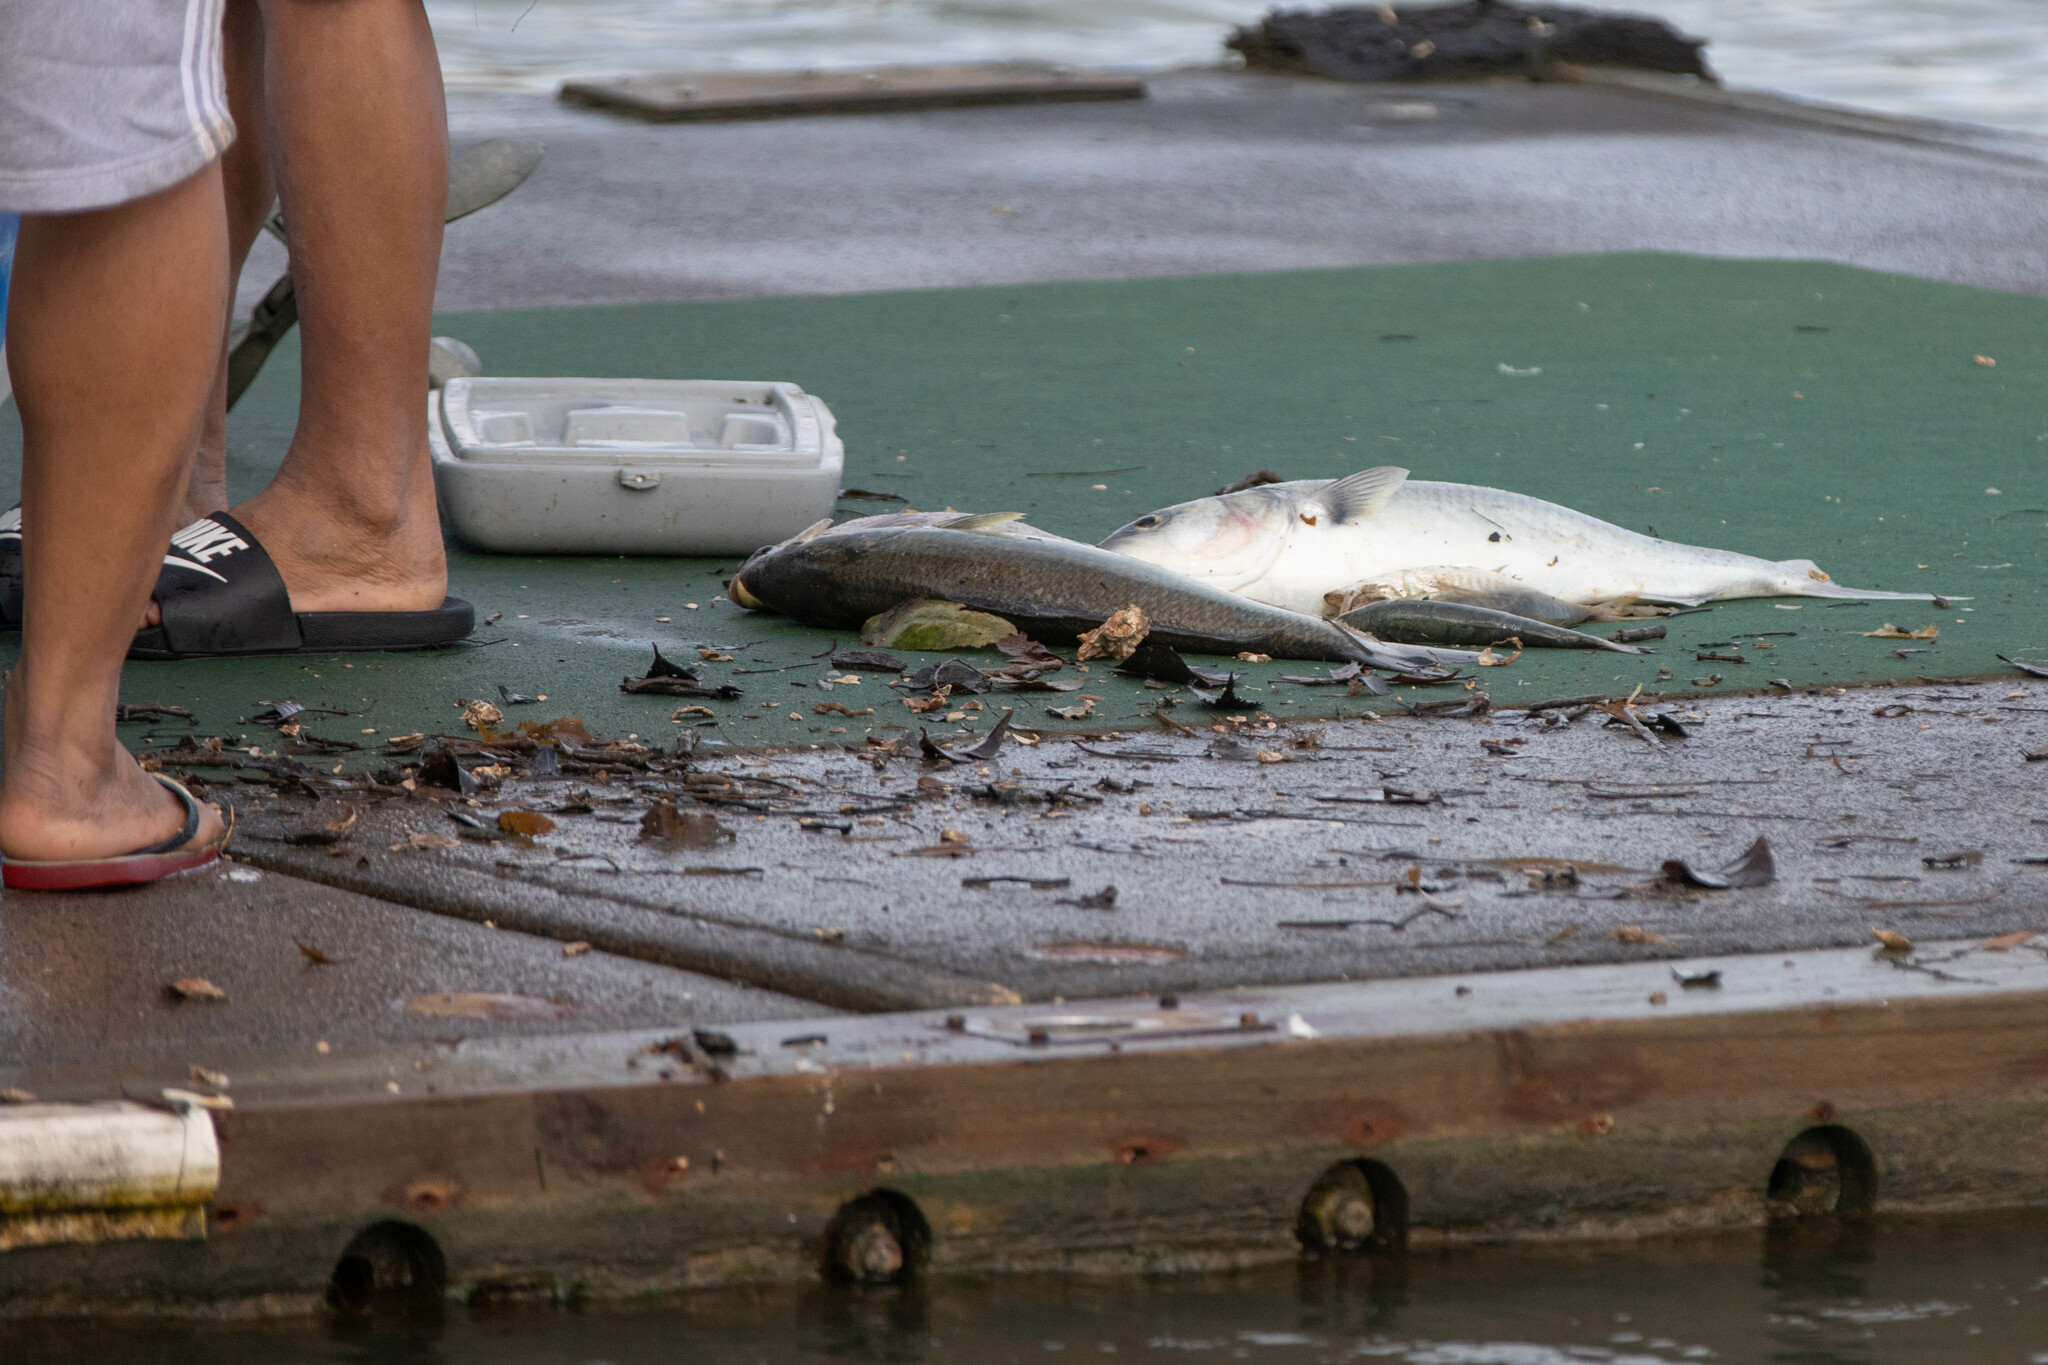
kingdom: Animalia
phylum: Chordata
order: Perciformes
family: Arripidae
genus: Arripis
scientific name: Arripis trutta
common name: Kahawai
